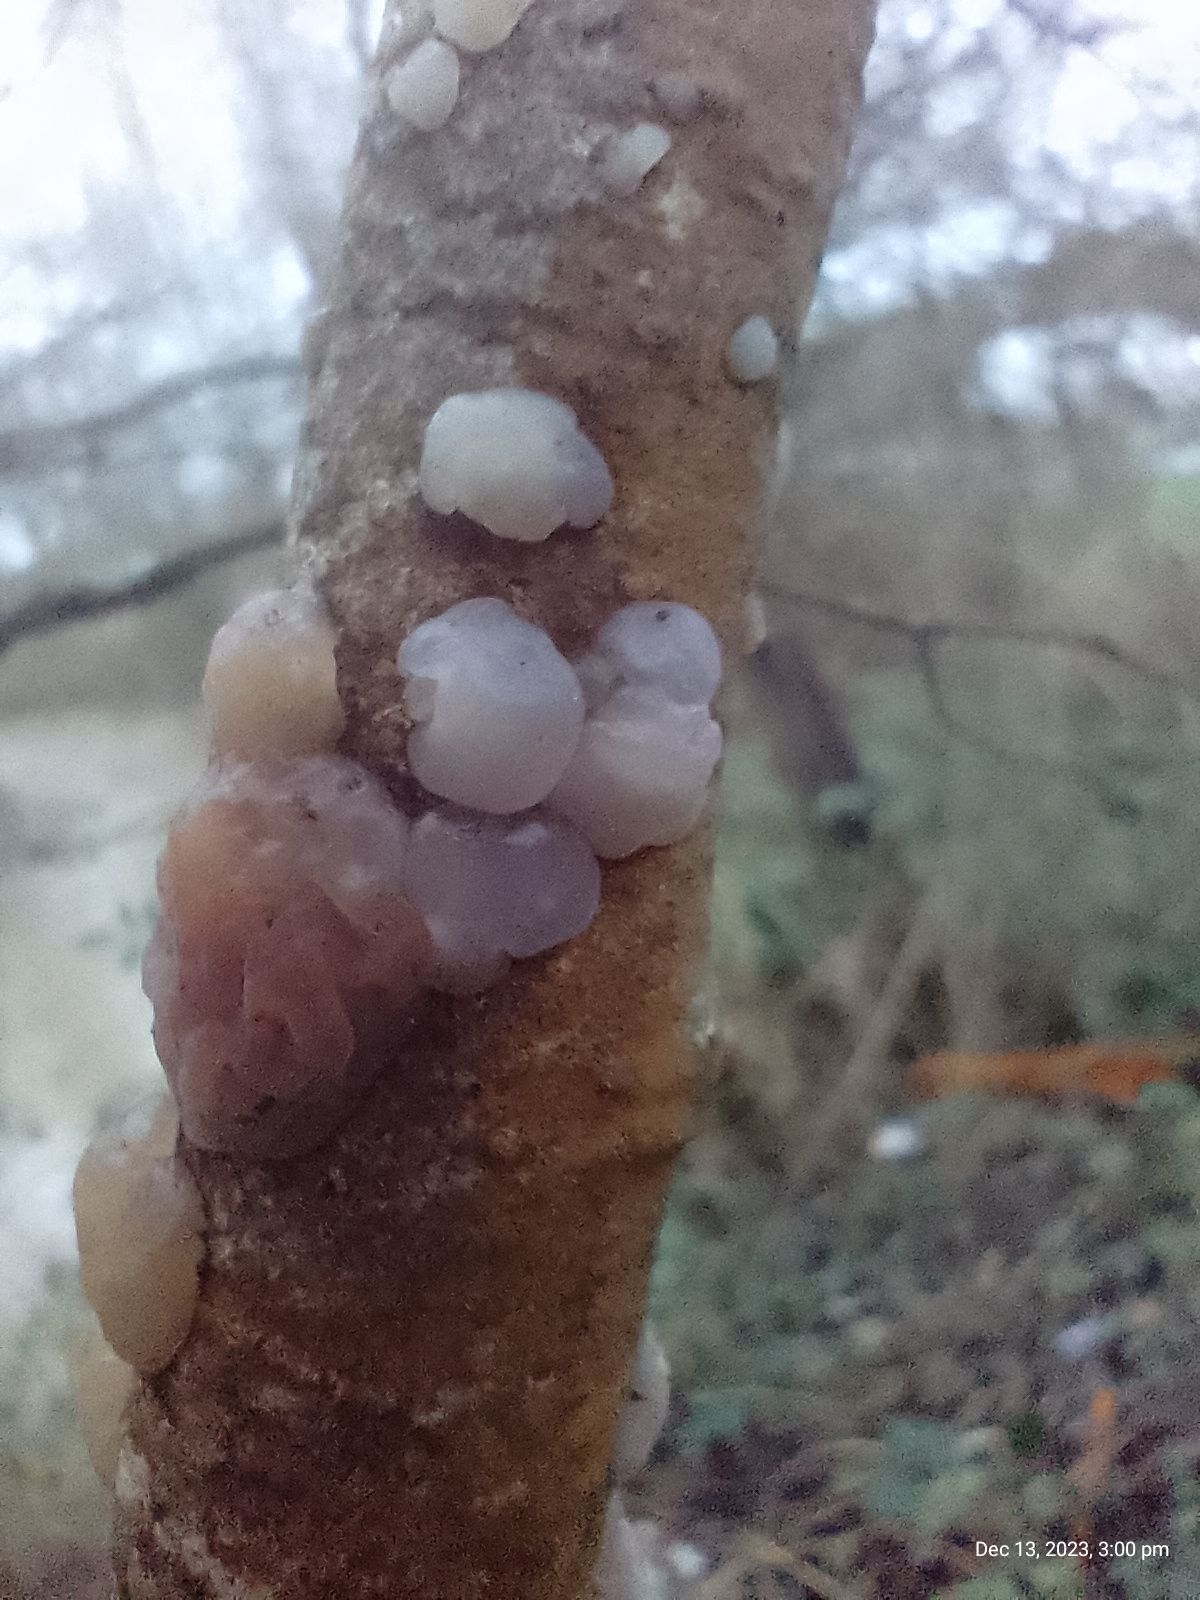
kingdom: Fungi
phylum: Basidiomycota
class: Agaricomycetes
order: Auriculariales
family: Hyaloriaceae
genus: Myxarium
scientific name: Myxarium nucleatum
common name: Crystal brain fungus
